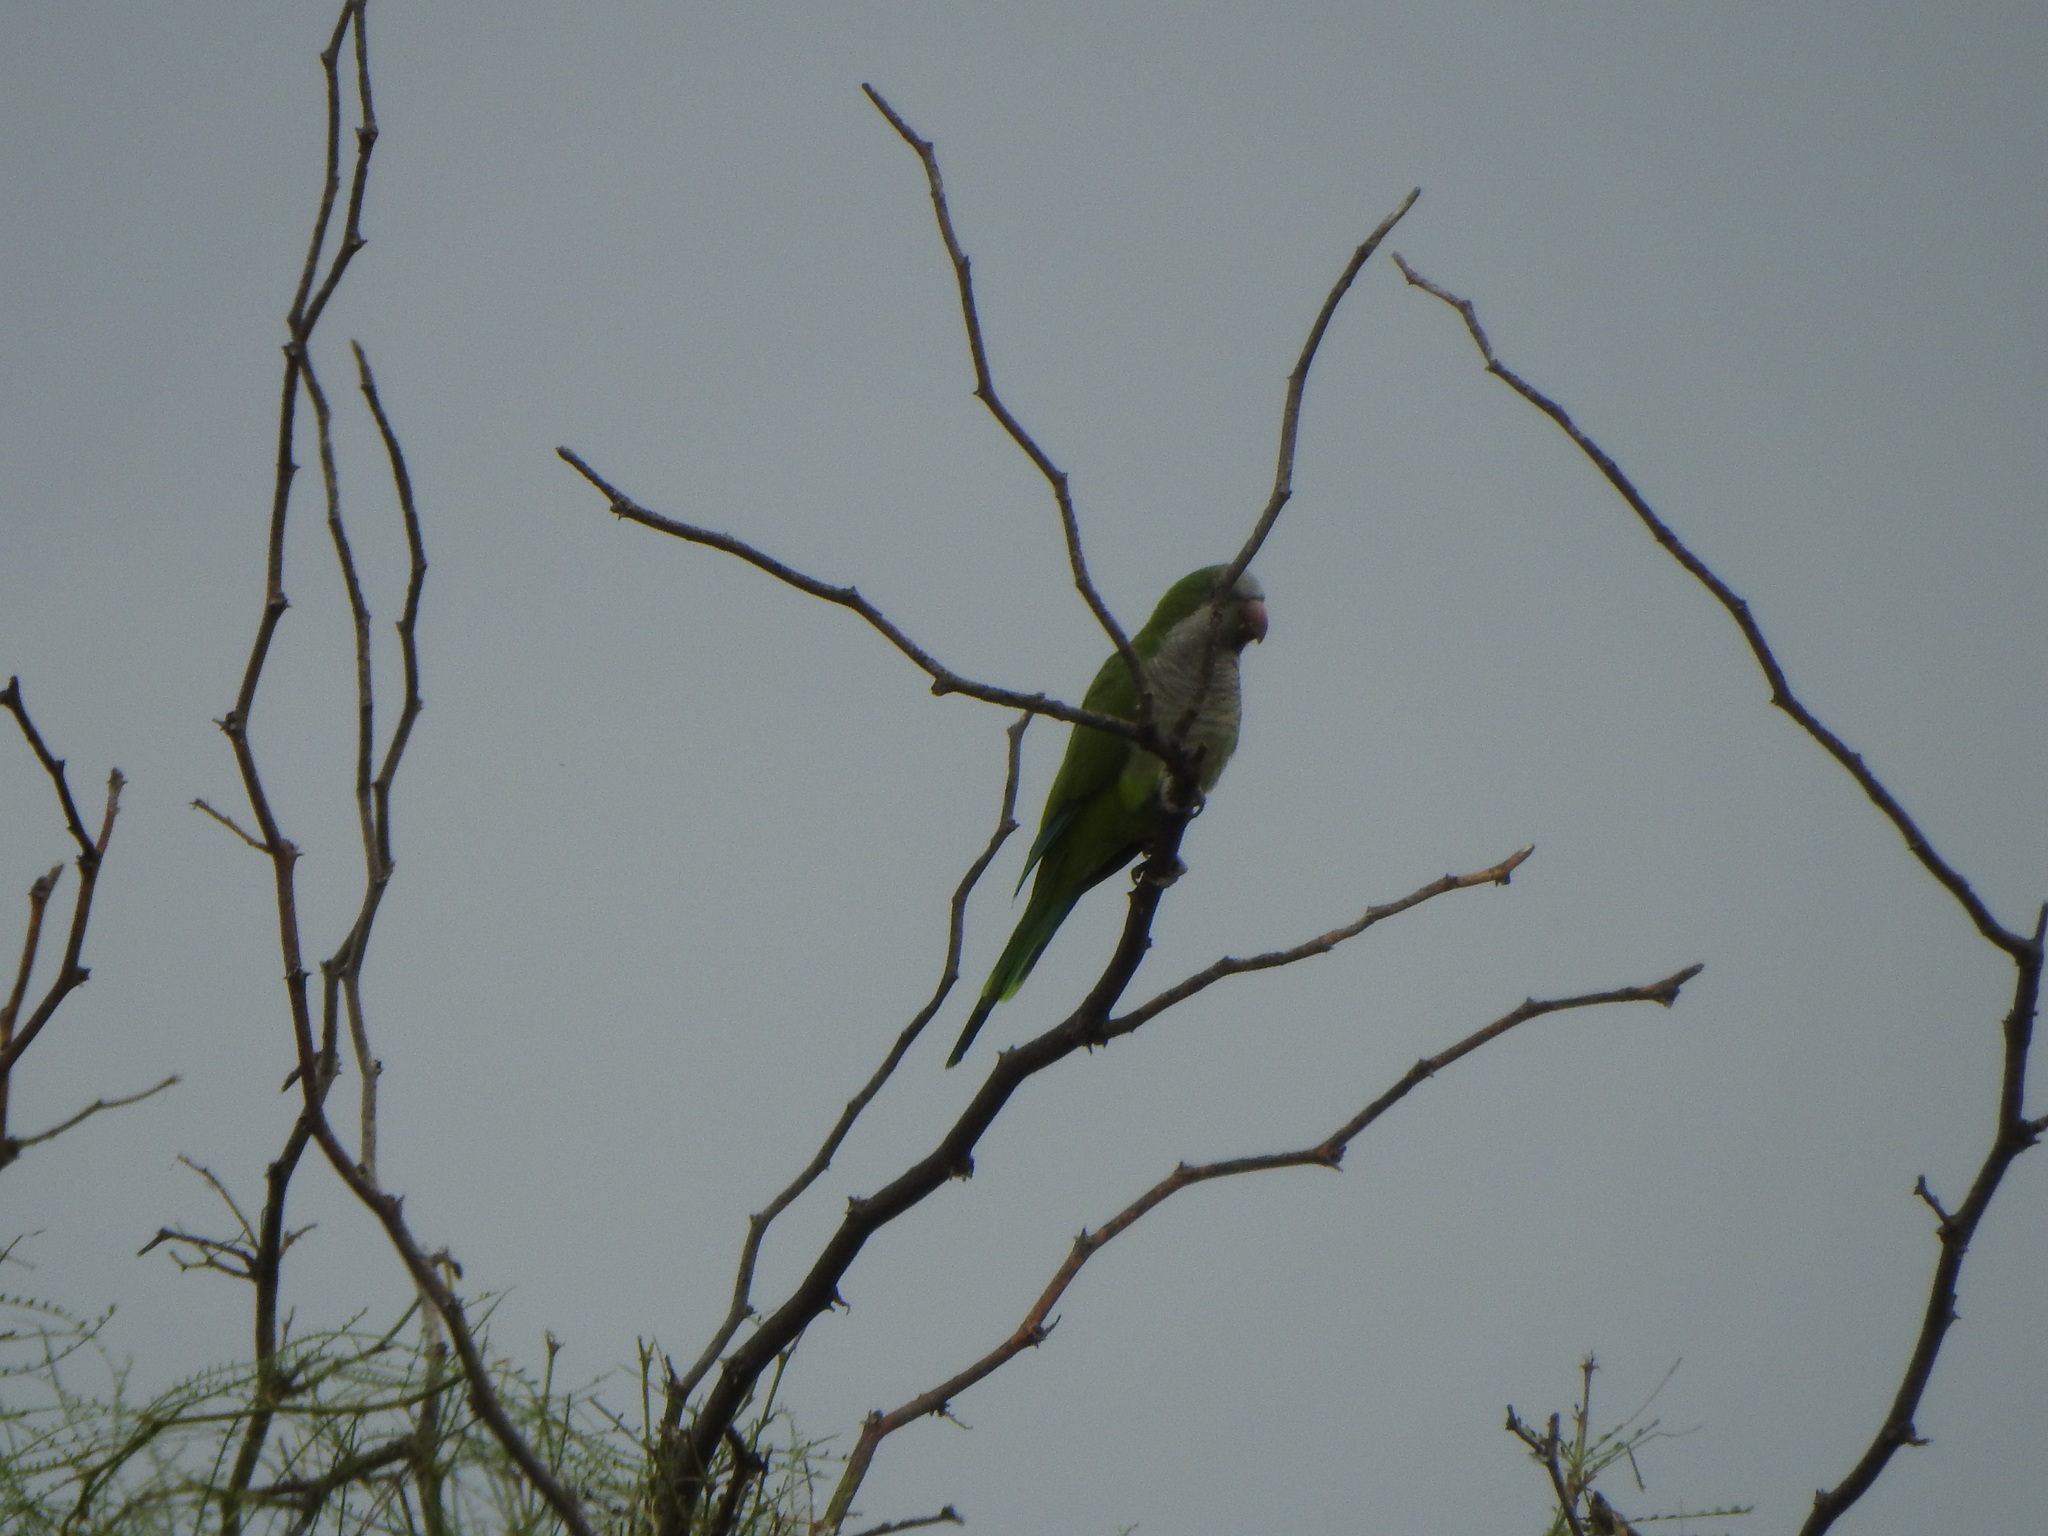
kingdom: Animalia
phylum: Chordata
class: Aves
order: Psittaciformes
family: Psittacidae
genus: Myiopsitta
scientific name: Myiopsitta monachus
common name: Monk parakeet
